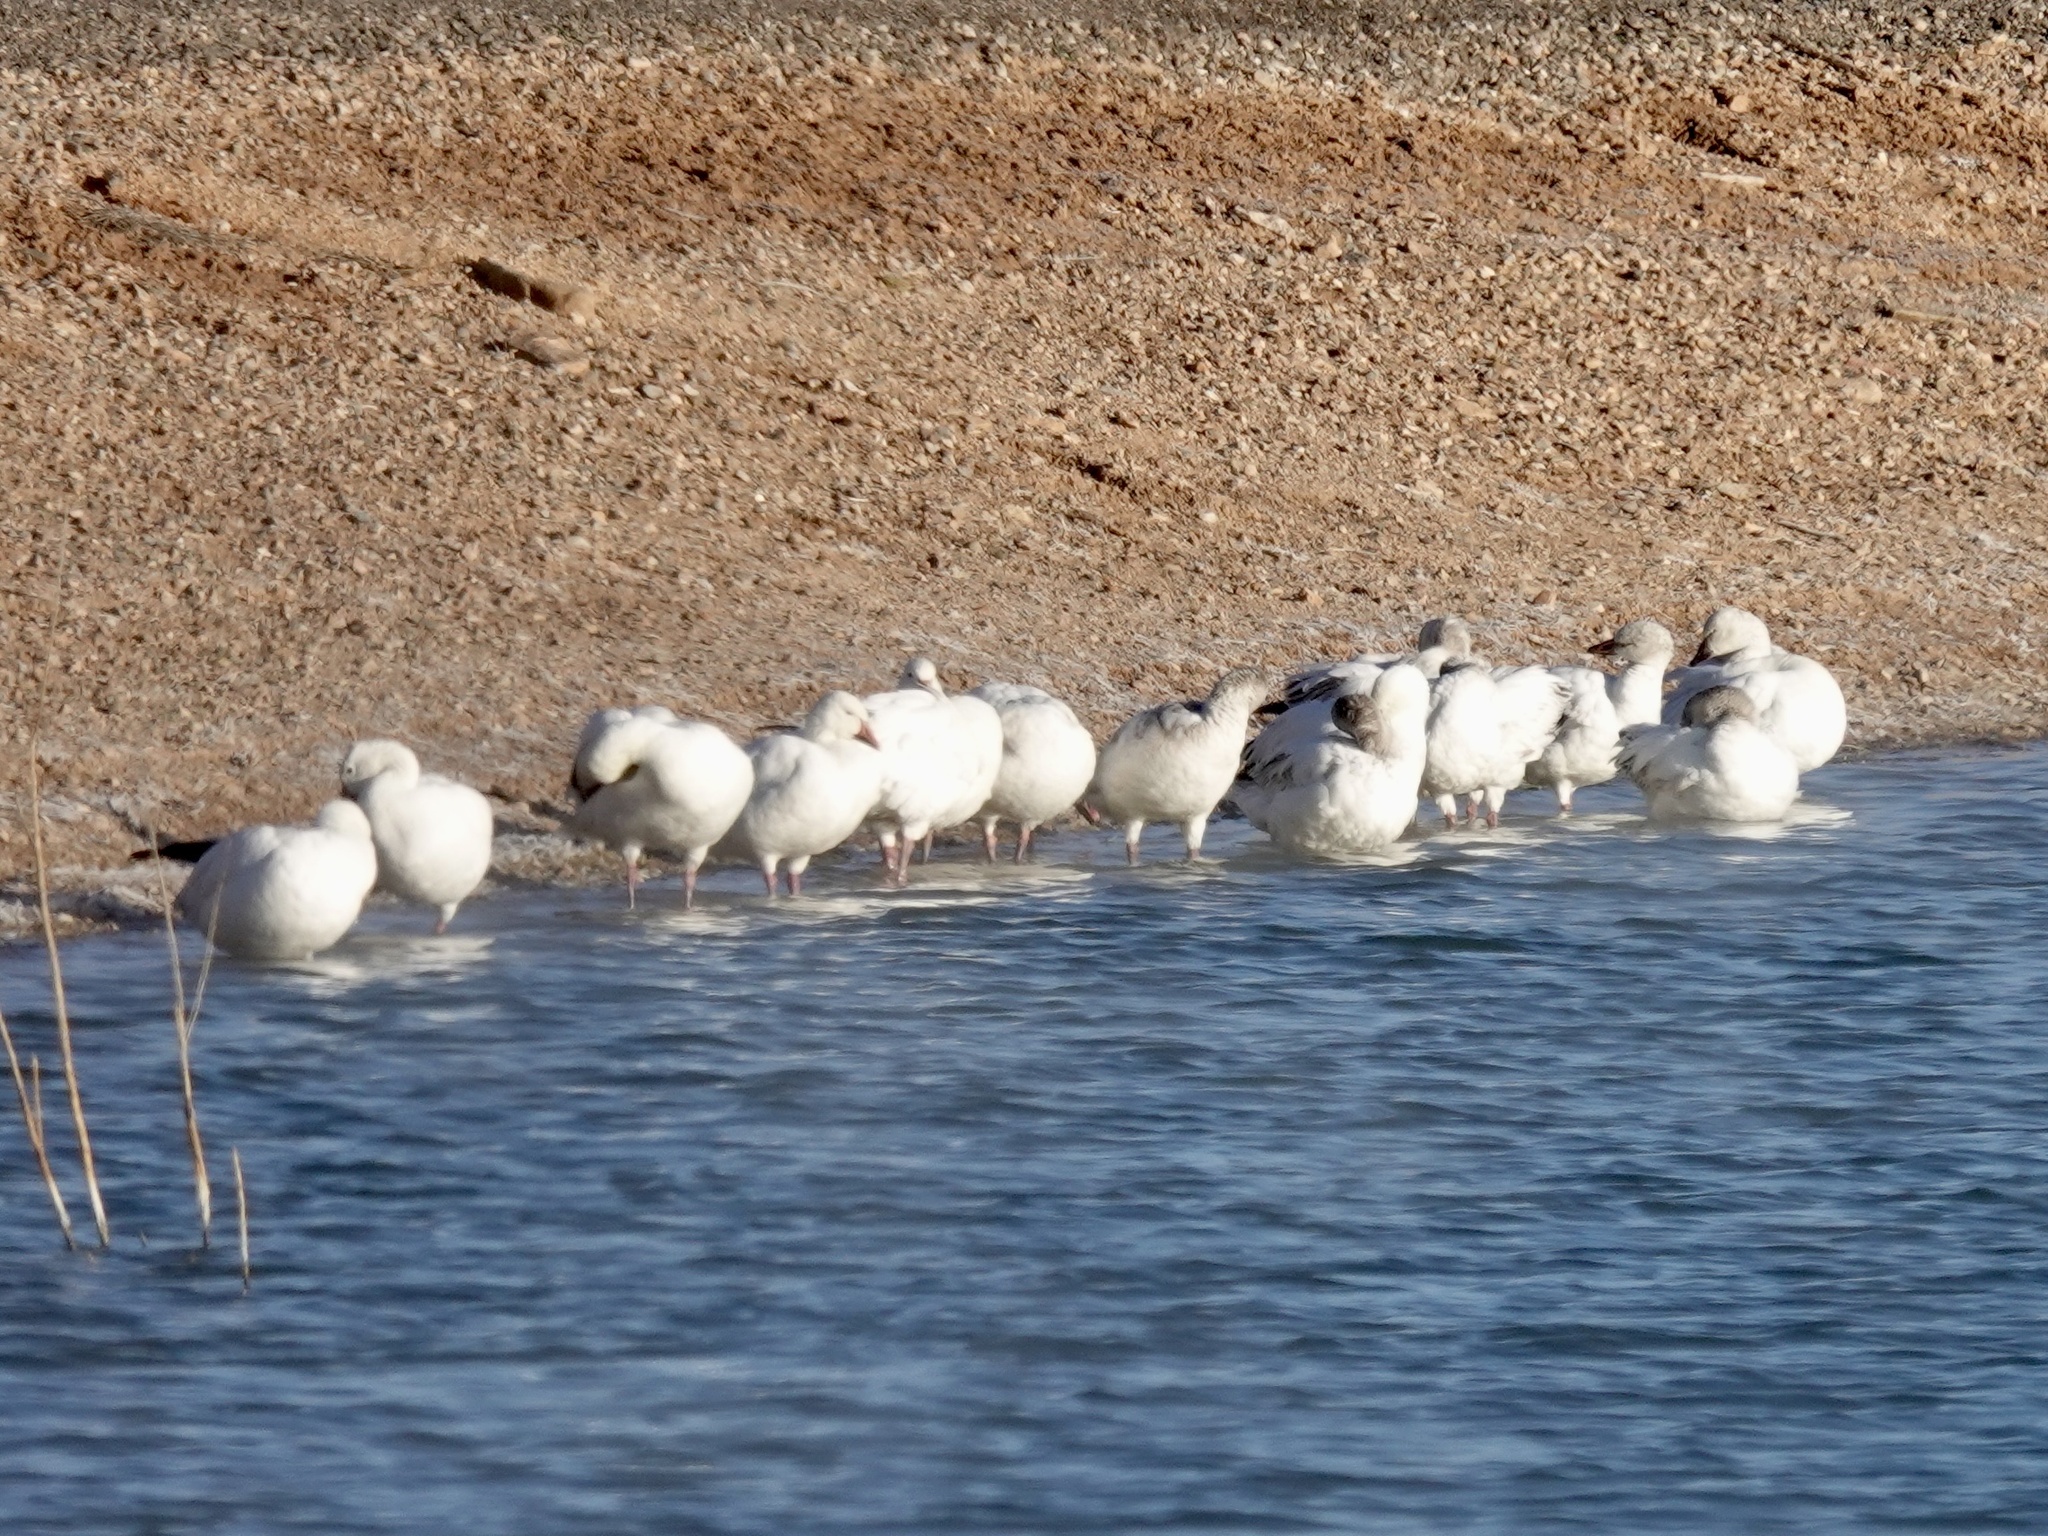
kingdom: Animalia
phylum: Chordata
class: Aves
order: Anseriformes
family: Anatidae
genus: Anser
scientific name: Anser caerulescens
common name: Snow goose
